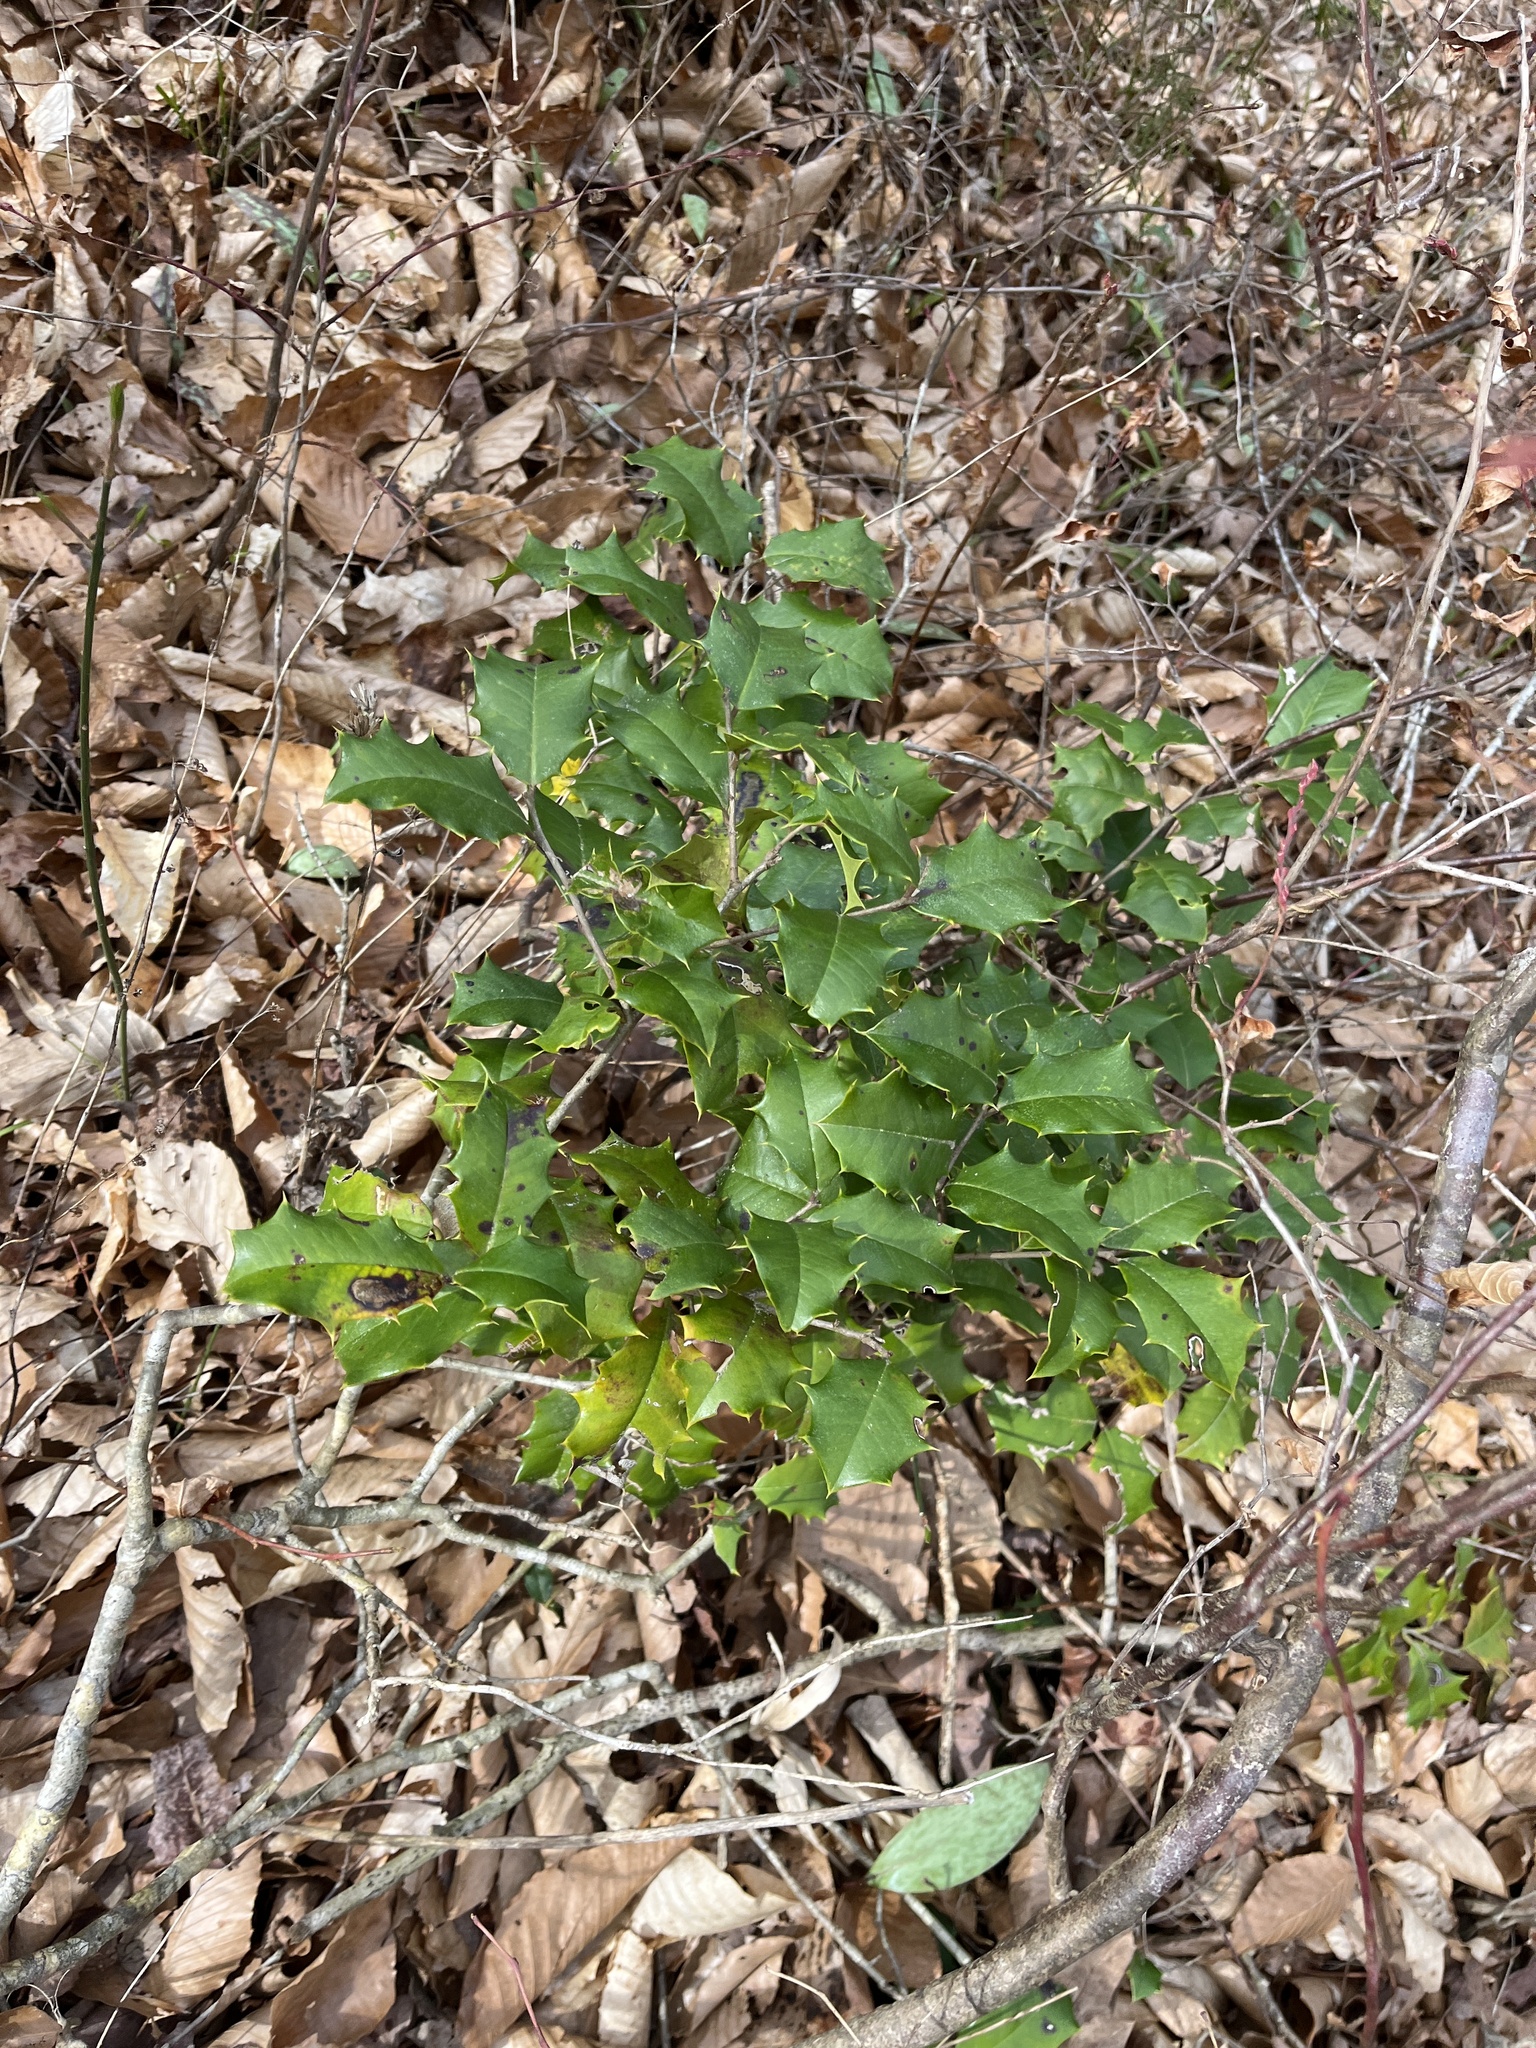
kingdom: Plantae
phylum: Tracheophyta
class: Magnoliopsida
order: Aquifoliales
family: Aquifoliaceae
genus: Ilex
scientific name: Ilex opaca
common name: American holly
